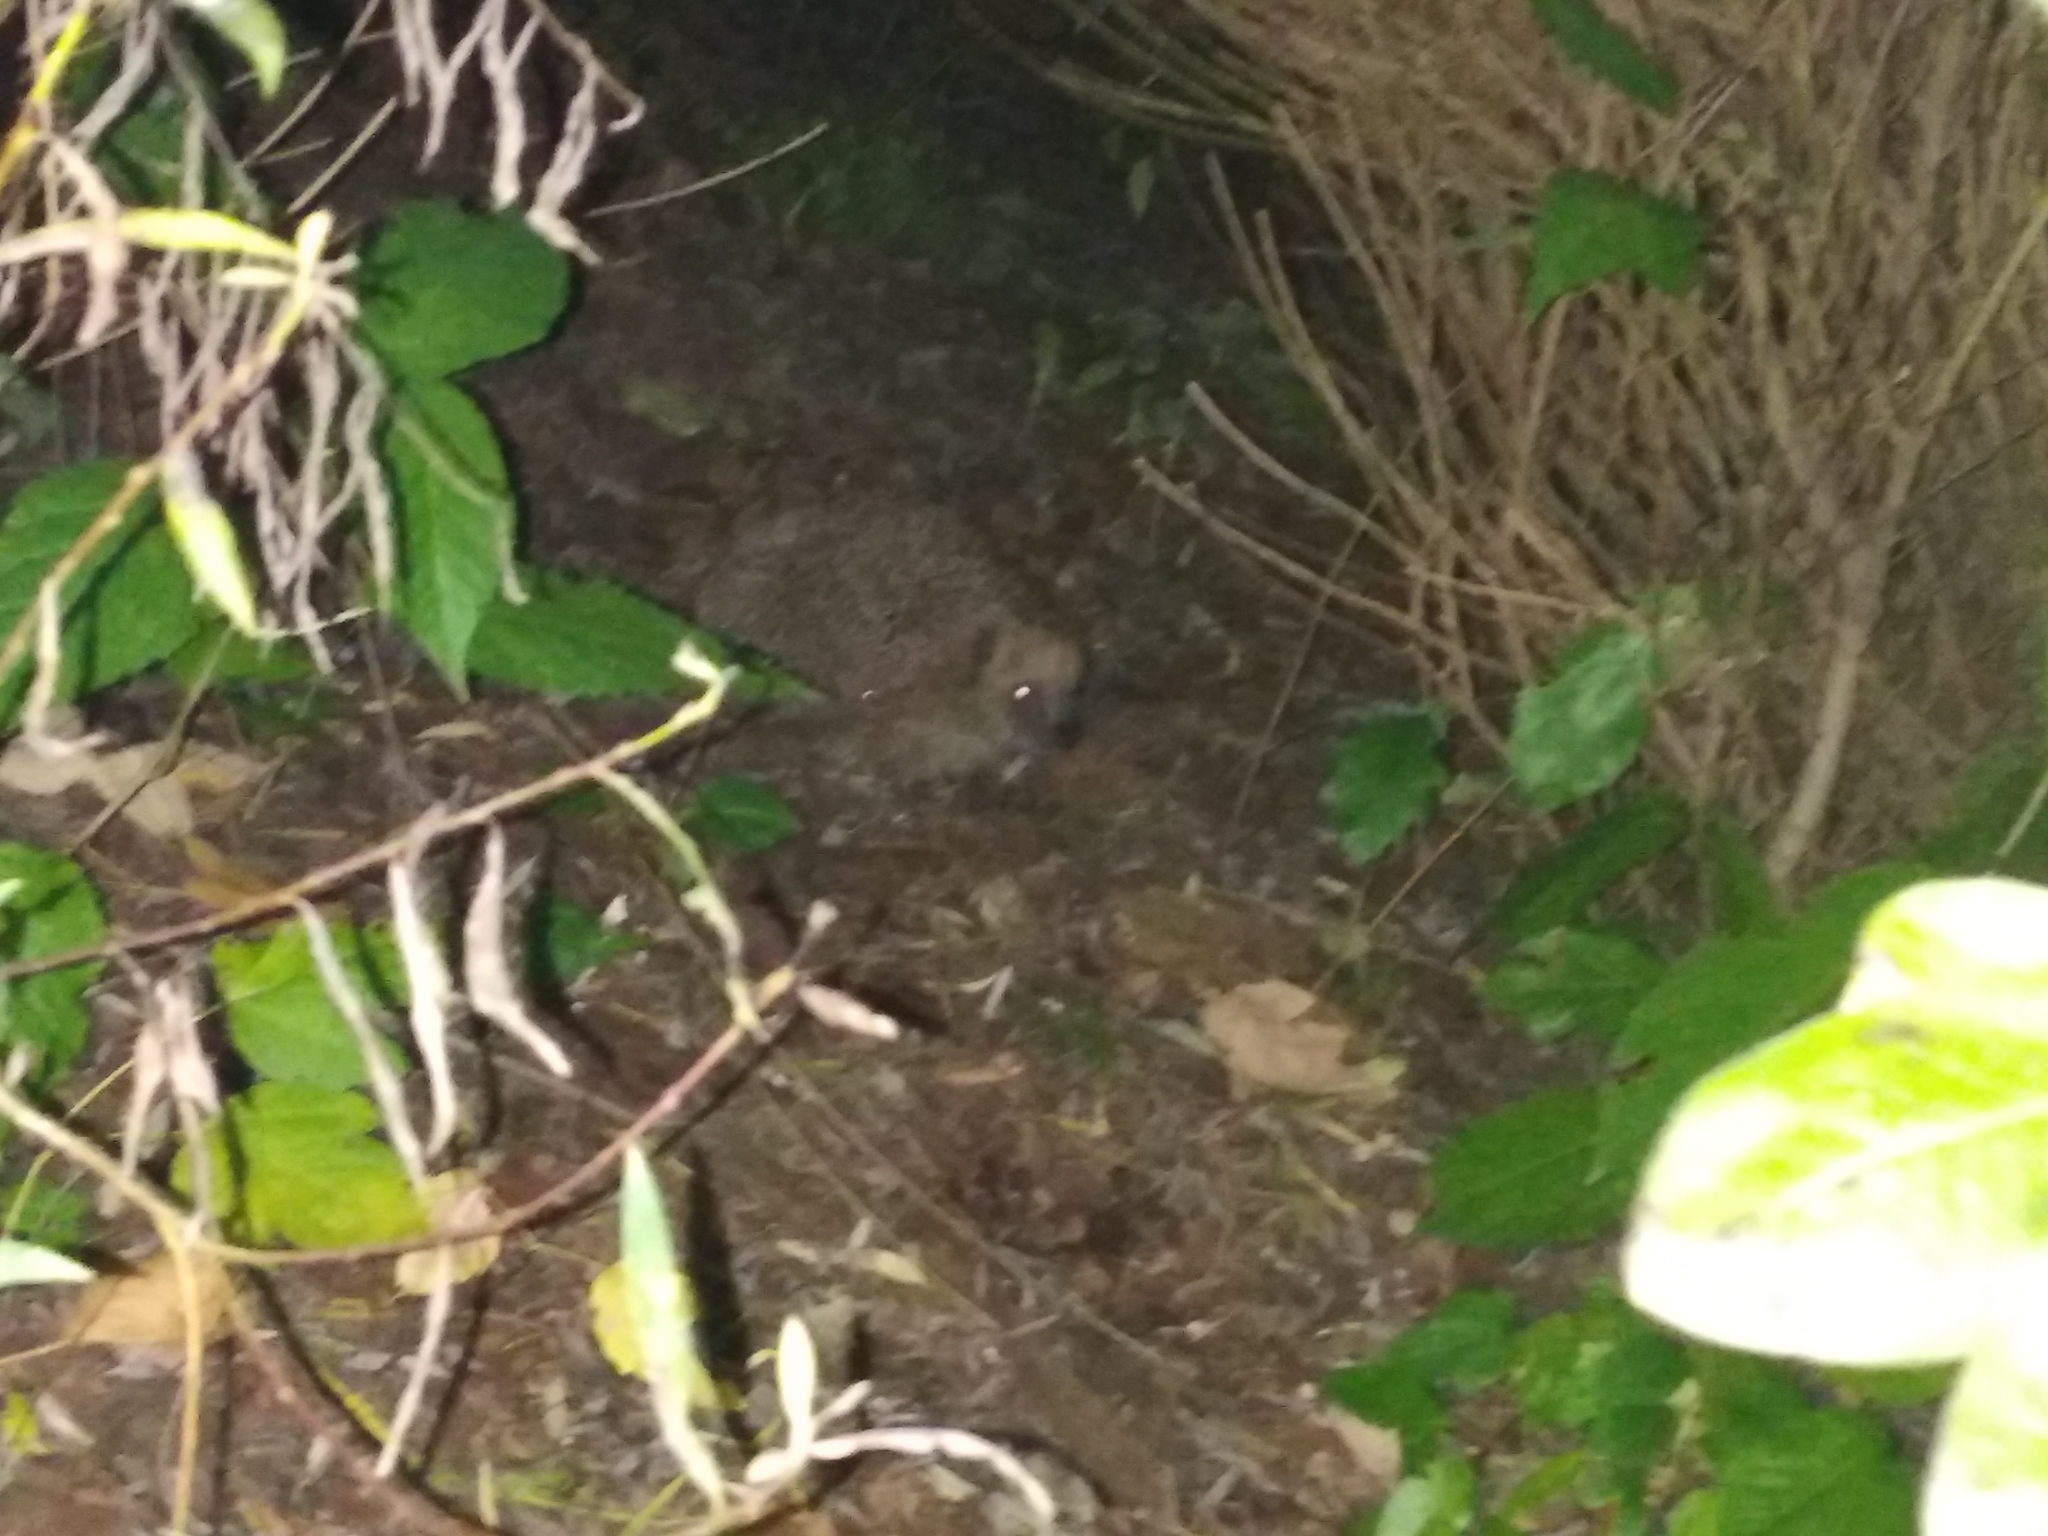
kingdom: Animalia
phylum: Chordata
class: Mammalia
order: Erinaceomorpha
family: Erinaceidae
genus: Erinaceus
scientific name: Erinaceus europaeus
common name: West european hedgehog
